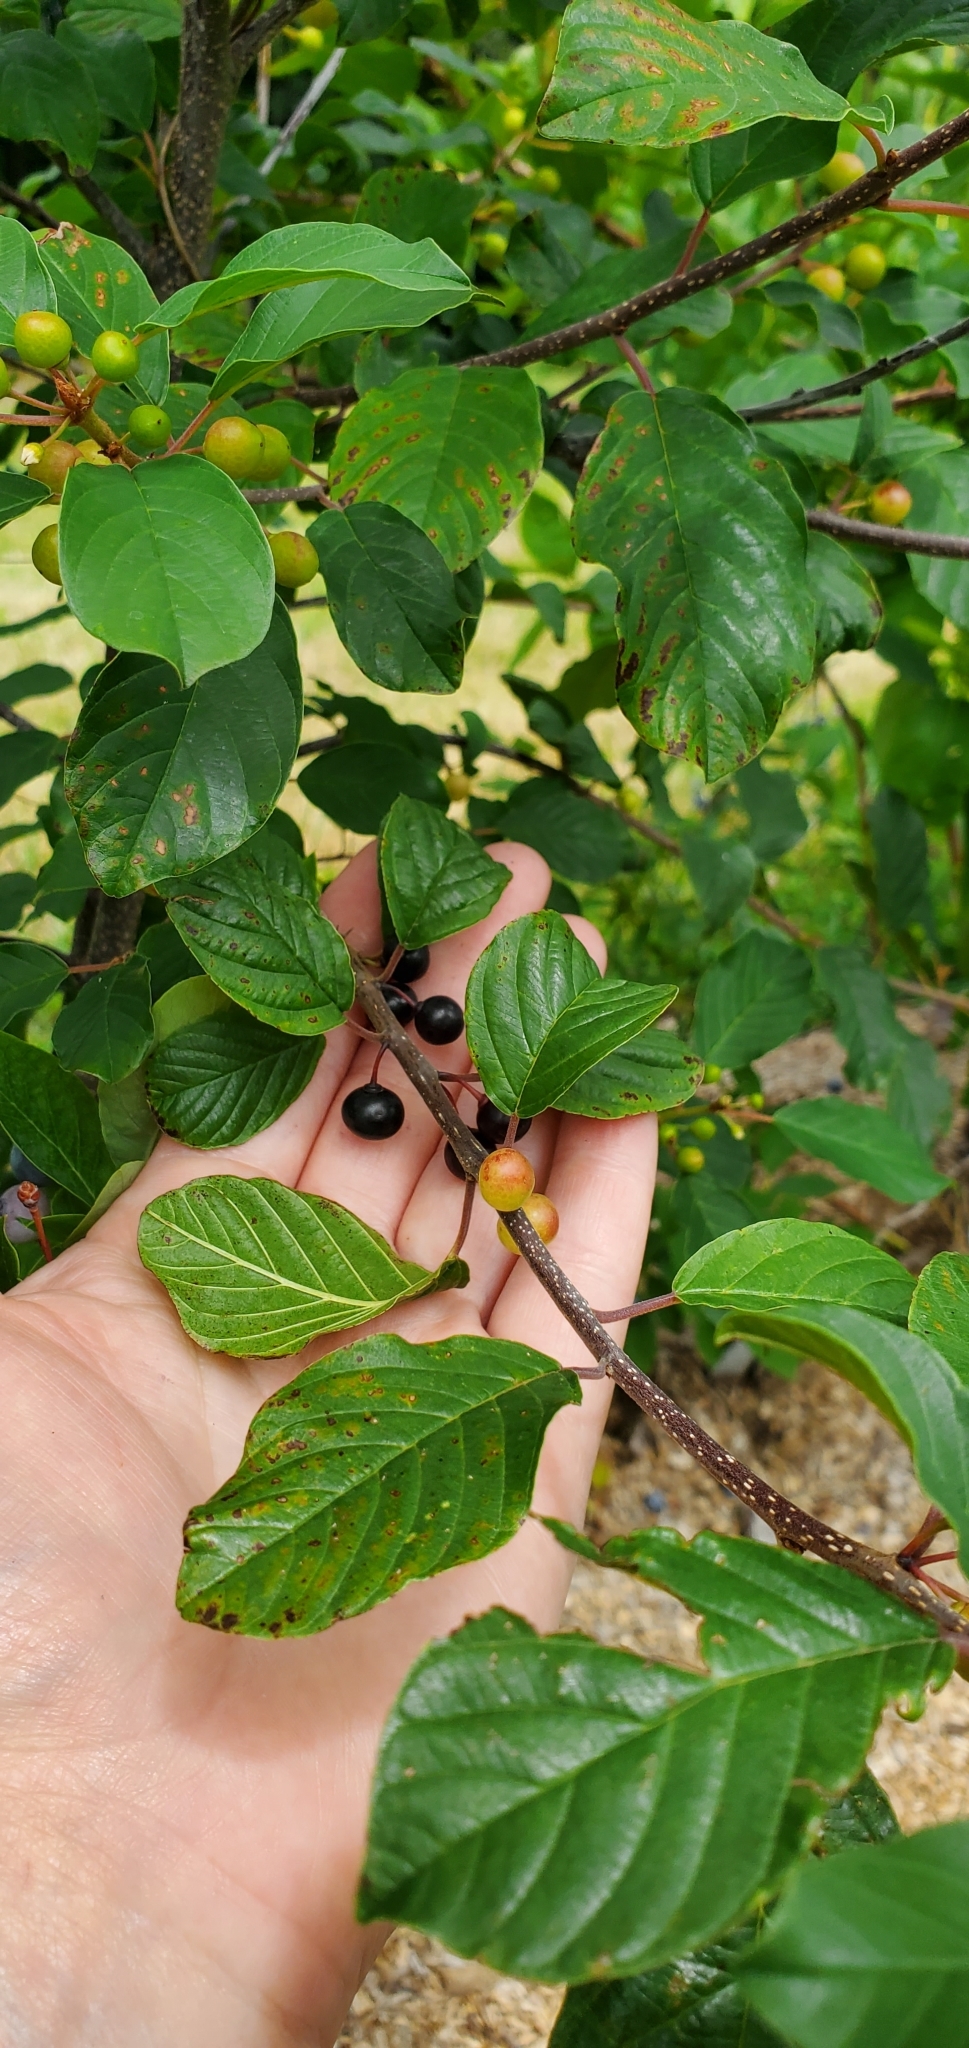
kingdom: Plantae
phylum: Tracheophyta
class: Magnoliopsida
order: Rosales
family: Rhamnaceae
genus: Frangula
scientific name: Frangula alnus
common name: Alder buckthorn
